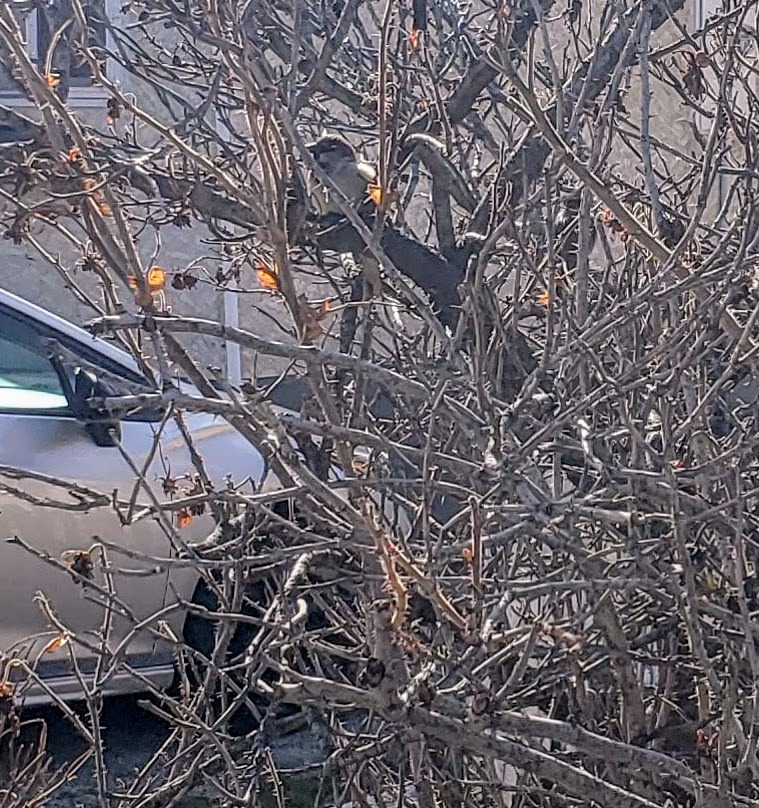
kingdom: Animalia
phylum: Chordata
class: Aves
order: Passeriformes
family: Passeridae
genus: Passer
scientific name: Passer domesticus
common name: House sparrow
